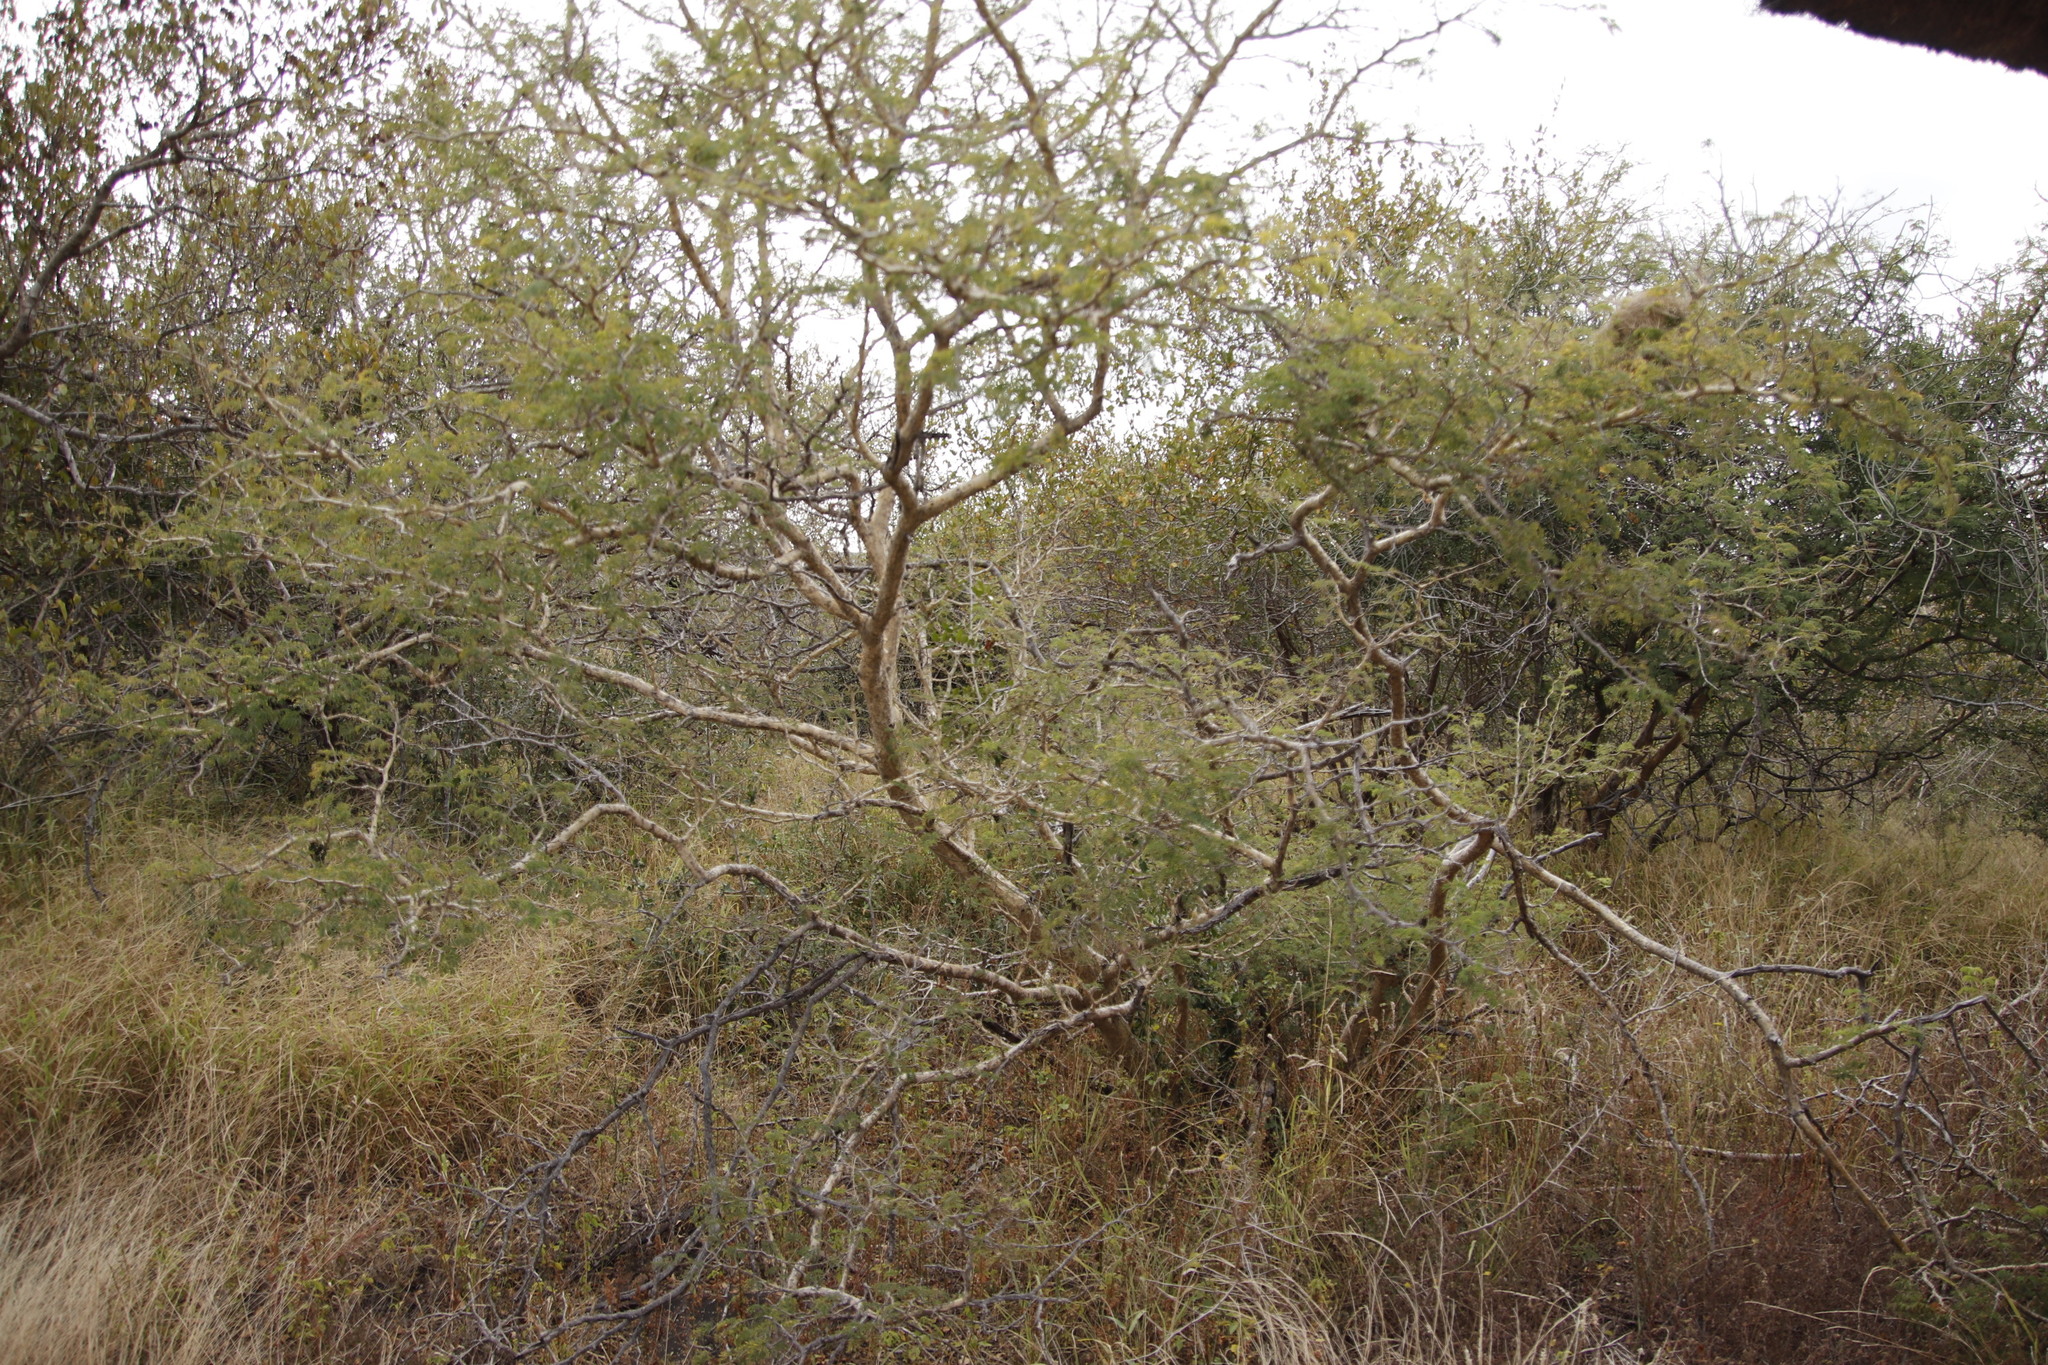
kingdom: Plantae
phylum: Tracheophyta
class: Magnoliopsida
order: Fabales
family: Fabaceae
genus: Senegalia
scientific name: Senegalia erubescens
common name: Bluethorn
